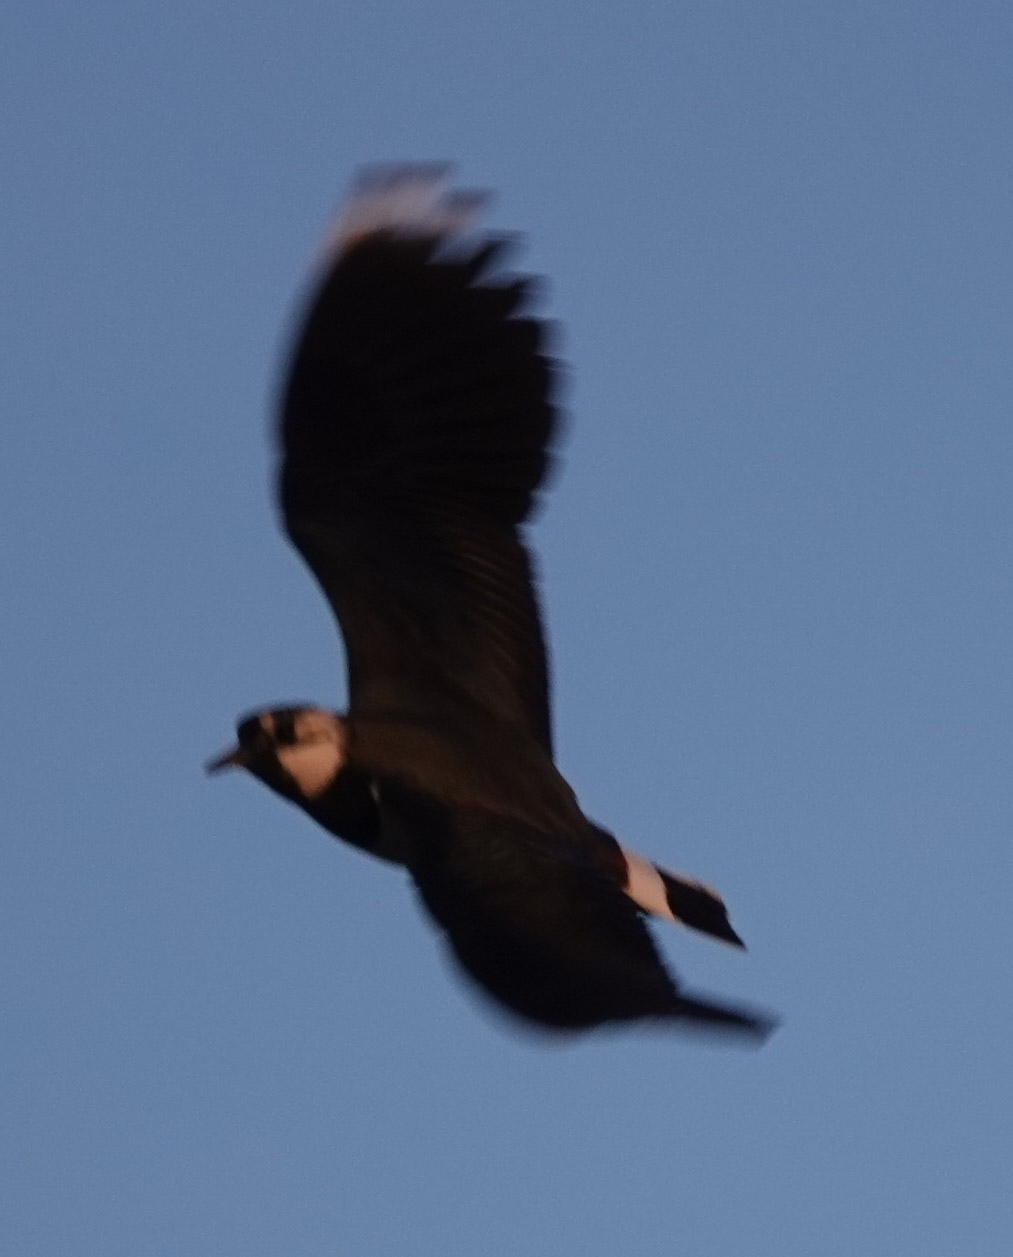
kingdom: Animalia
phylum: Chordata
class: Aves
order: Charadriiformes
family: Charadriidae
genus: Vanellus
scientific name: Vanellus vanellus
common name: Northern lapwing
